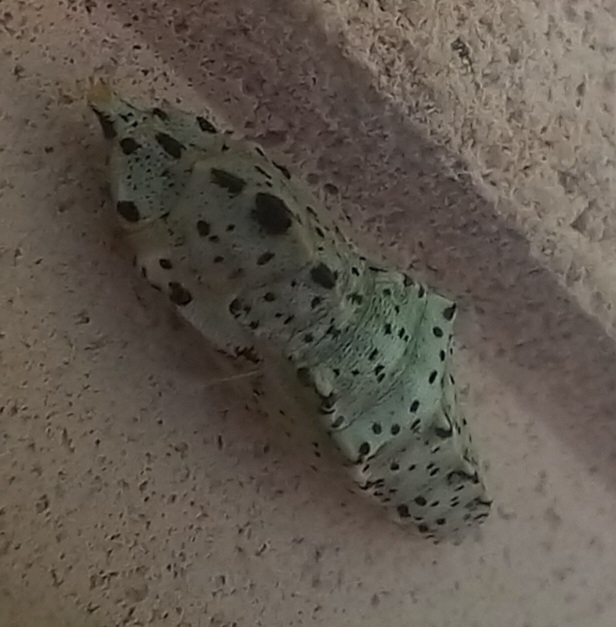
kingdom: Animalia
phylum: Arthropoda
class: Insecta
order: Lepidoptera
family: Pieridae
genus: Pieris
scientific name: Pieris brassicae
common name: Large white
